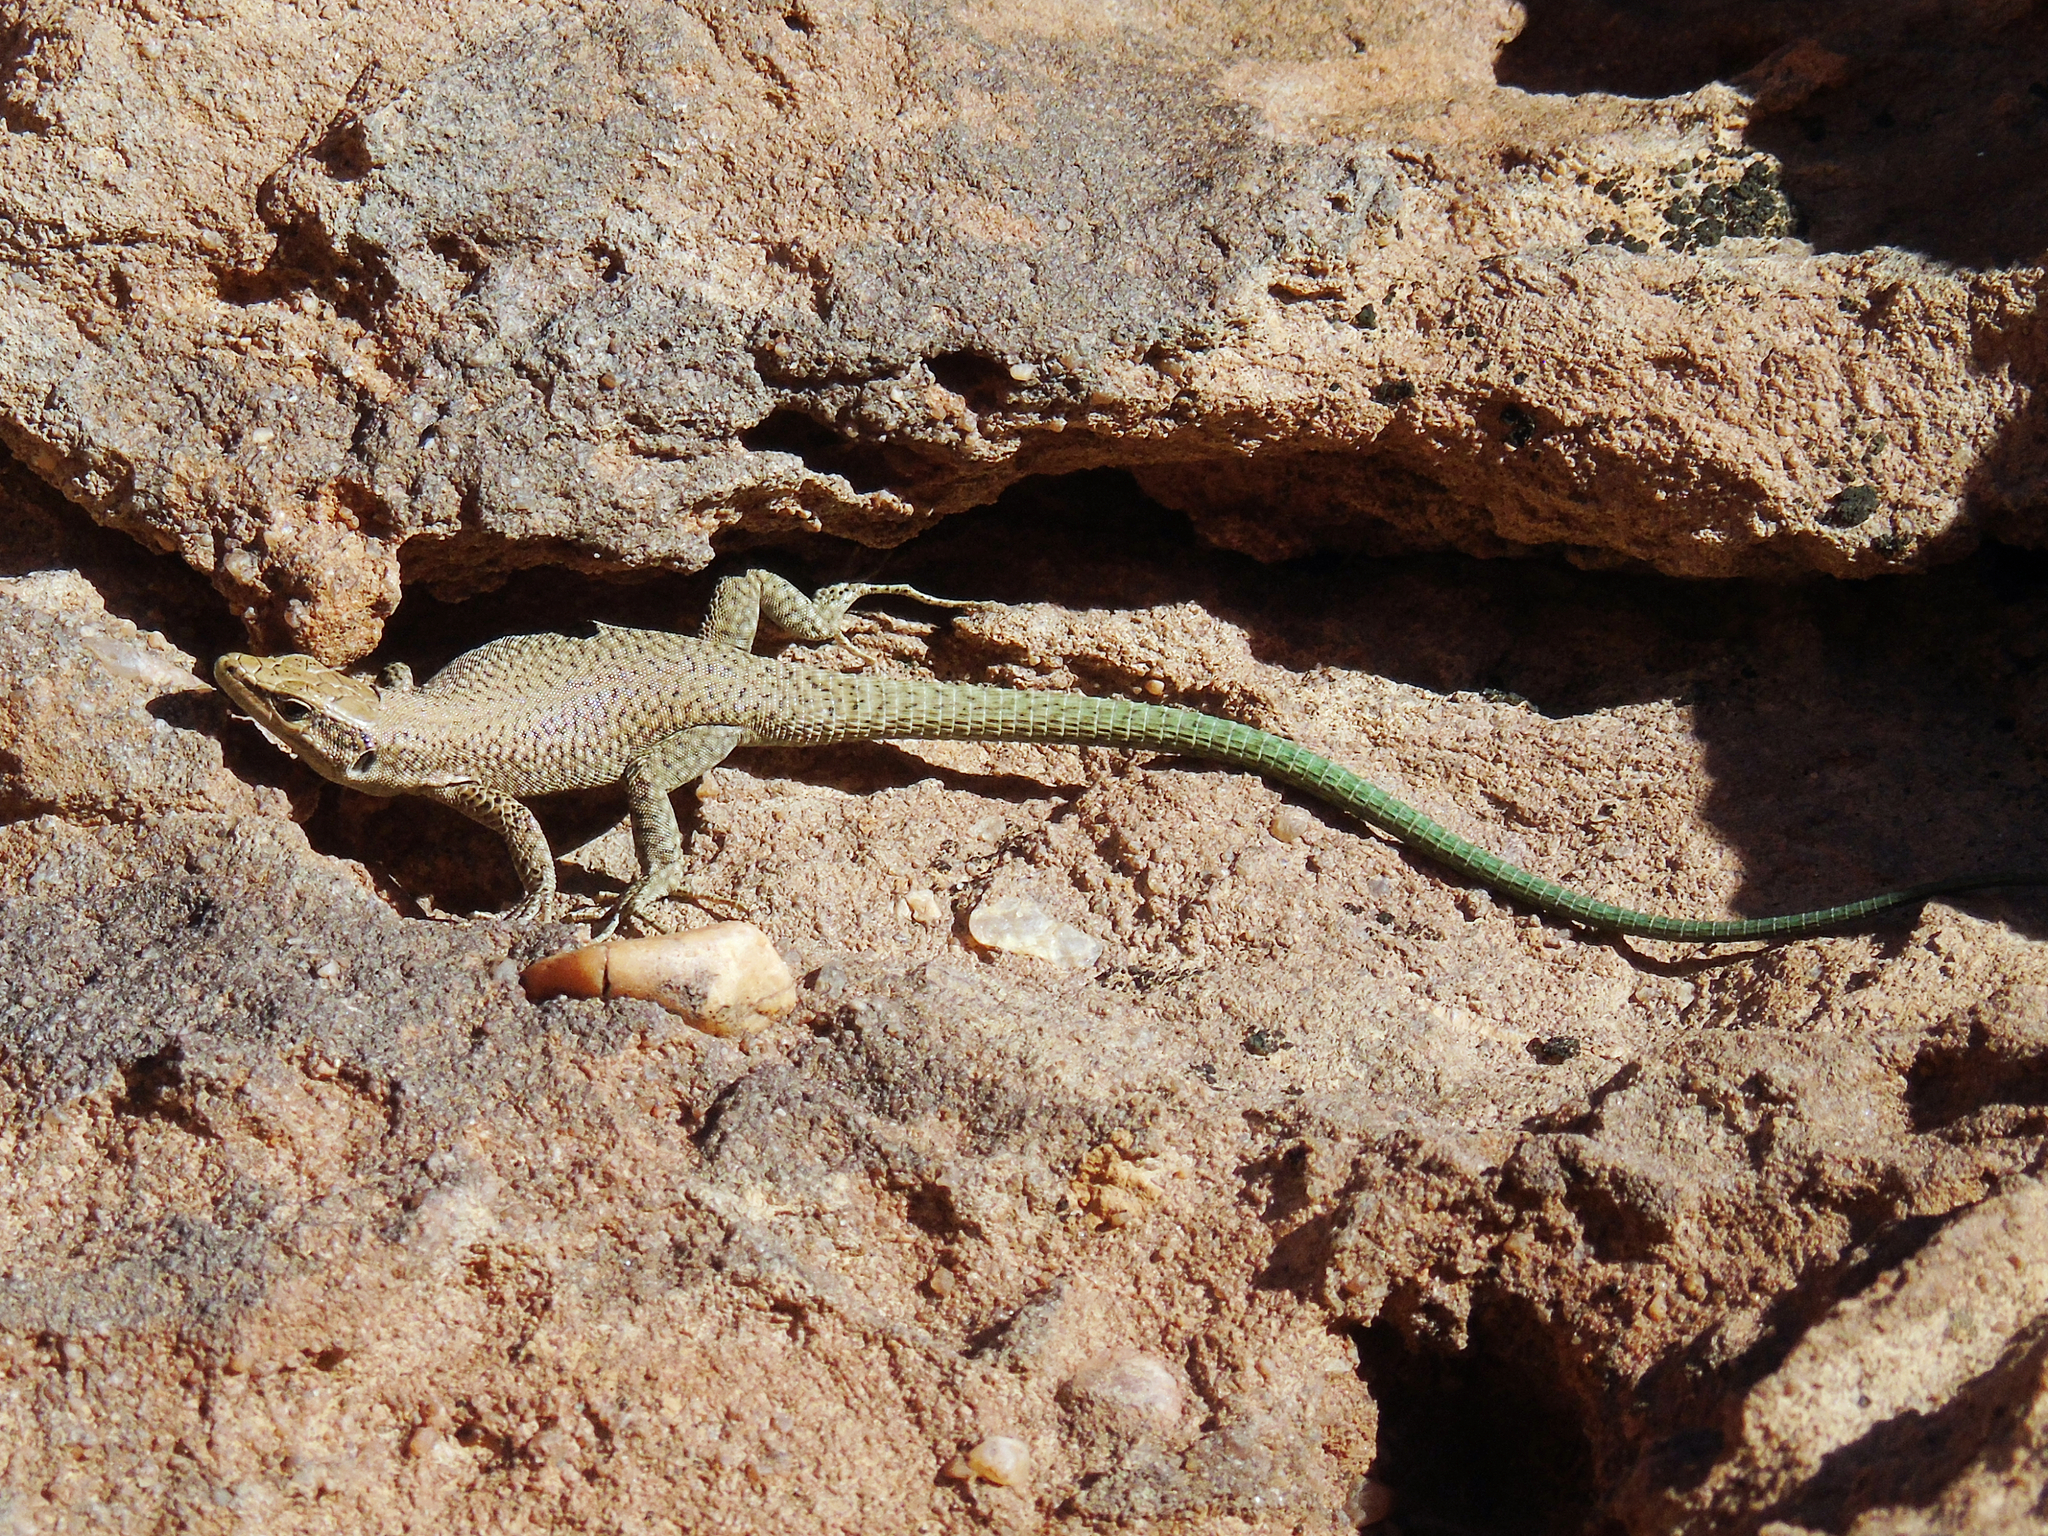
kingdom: Animalia
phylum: Chordata
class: Squamata
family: Lacertidae
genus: Phoenicolacerta
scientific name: Phoenicolacerta kulzeri
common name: Kulzer’s rock lizard
